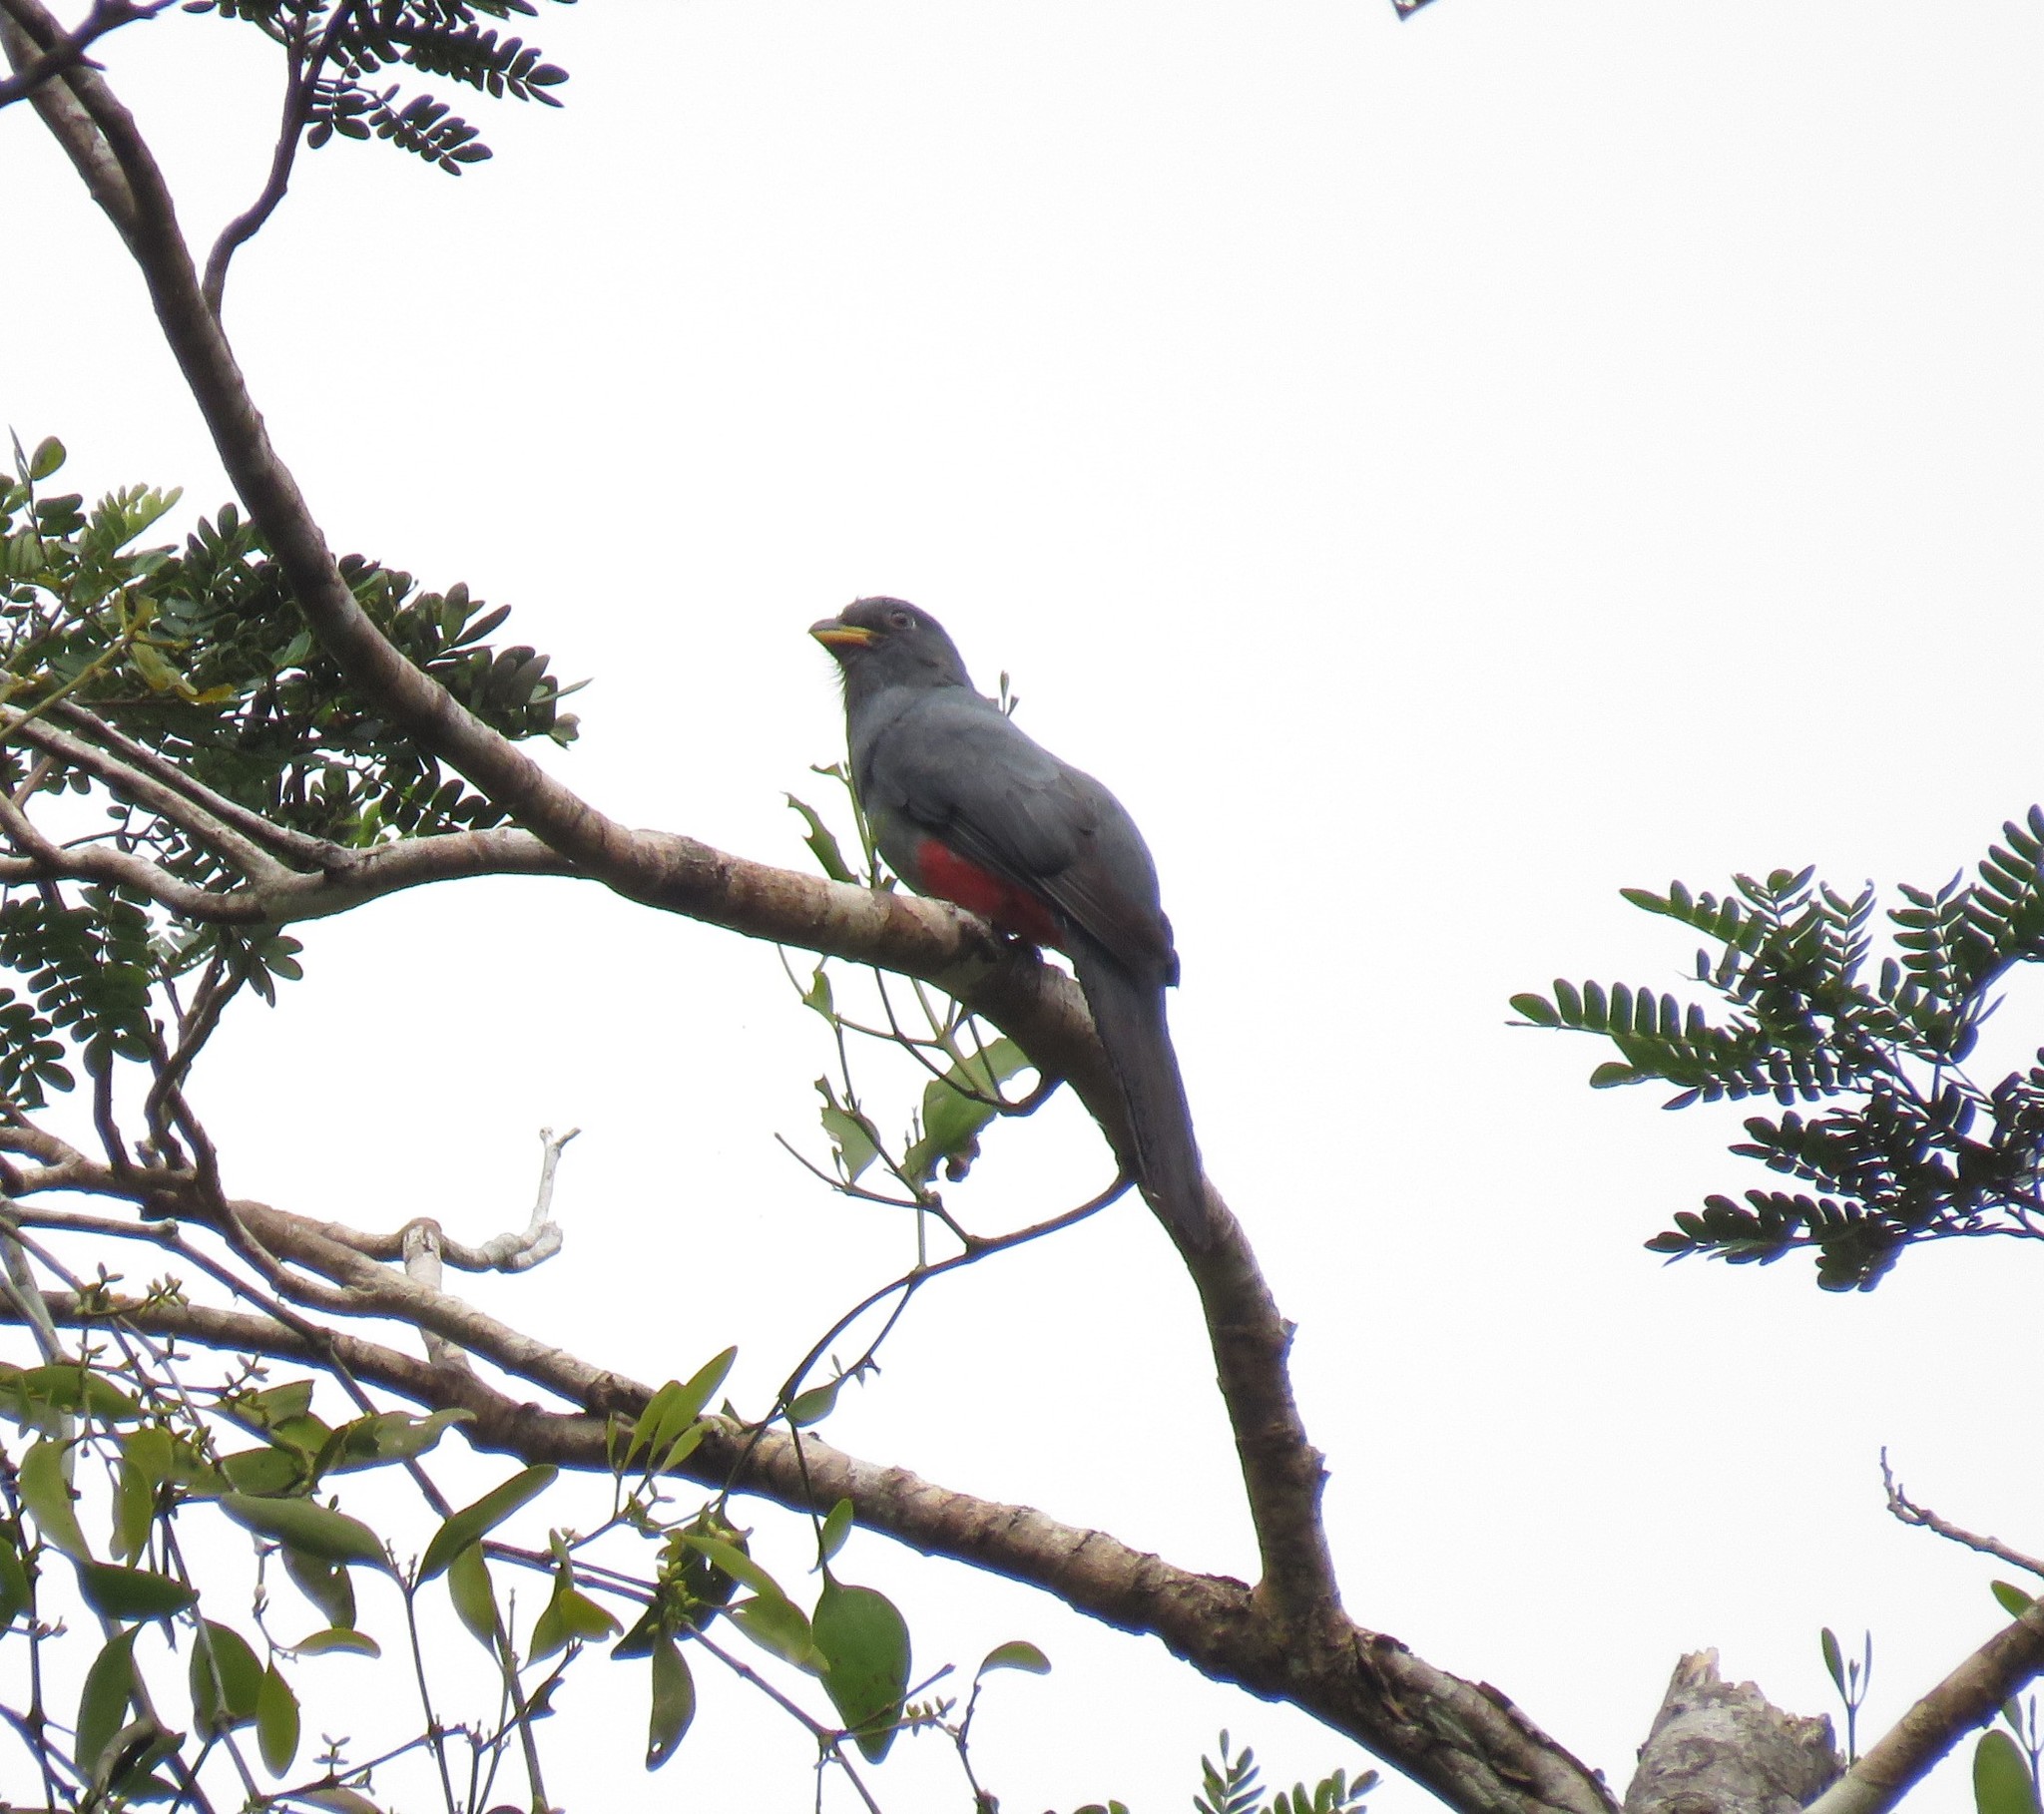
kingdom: Animalia
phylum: Chordata
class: Aves
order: Trogoniformes
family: Trogonidae
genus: Trogon
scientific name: Trogon melanurus
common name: Black-tailed trogon
